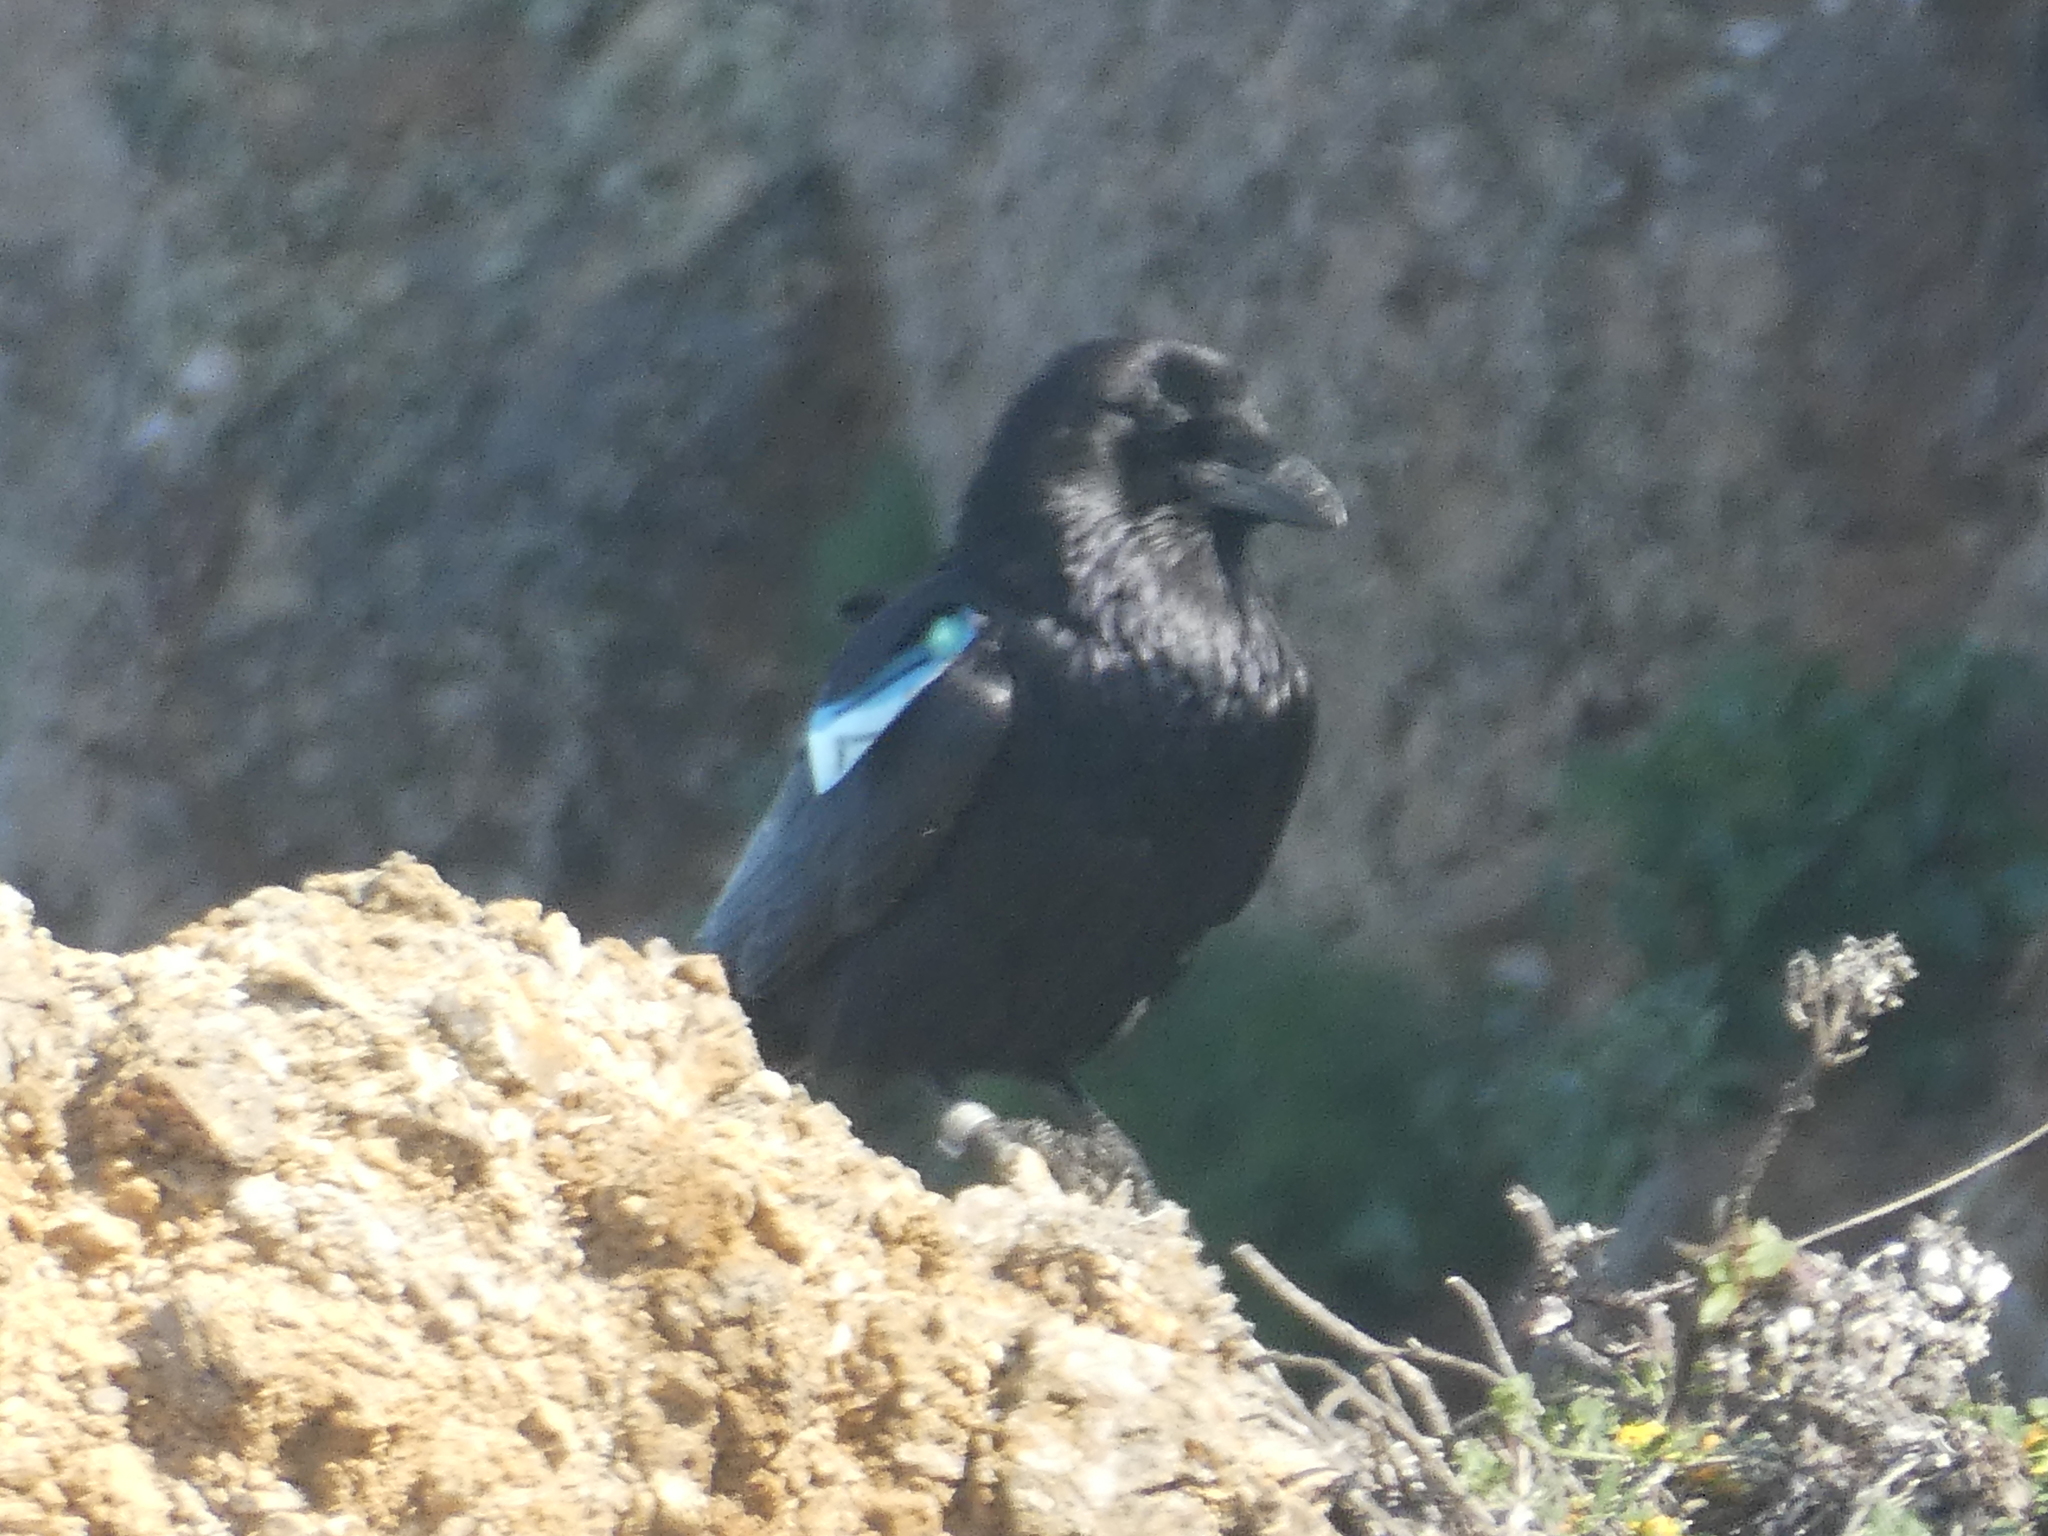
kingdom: Animalia
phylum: Chordata
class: Aves
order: Passeriformes
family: Corvidae
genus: Corvus
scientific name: Corvus corax
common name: Common raven
